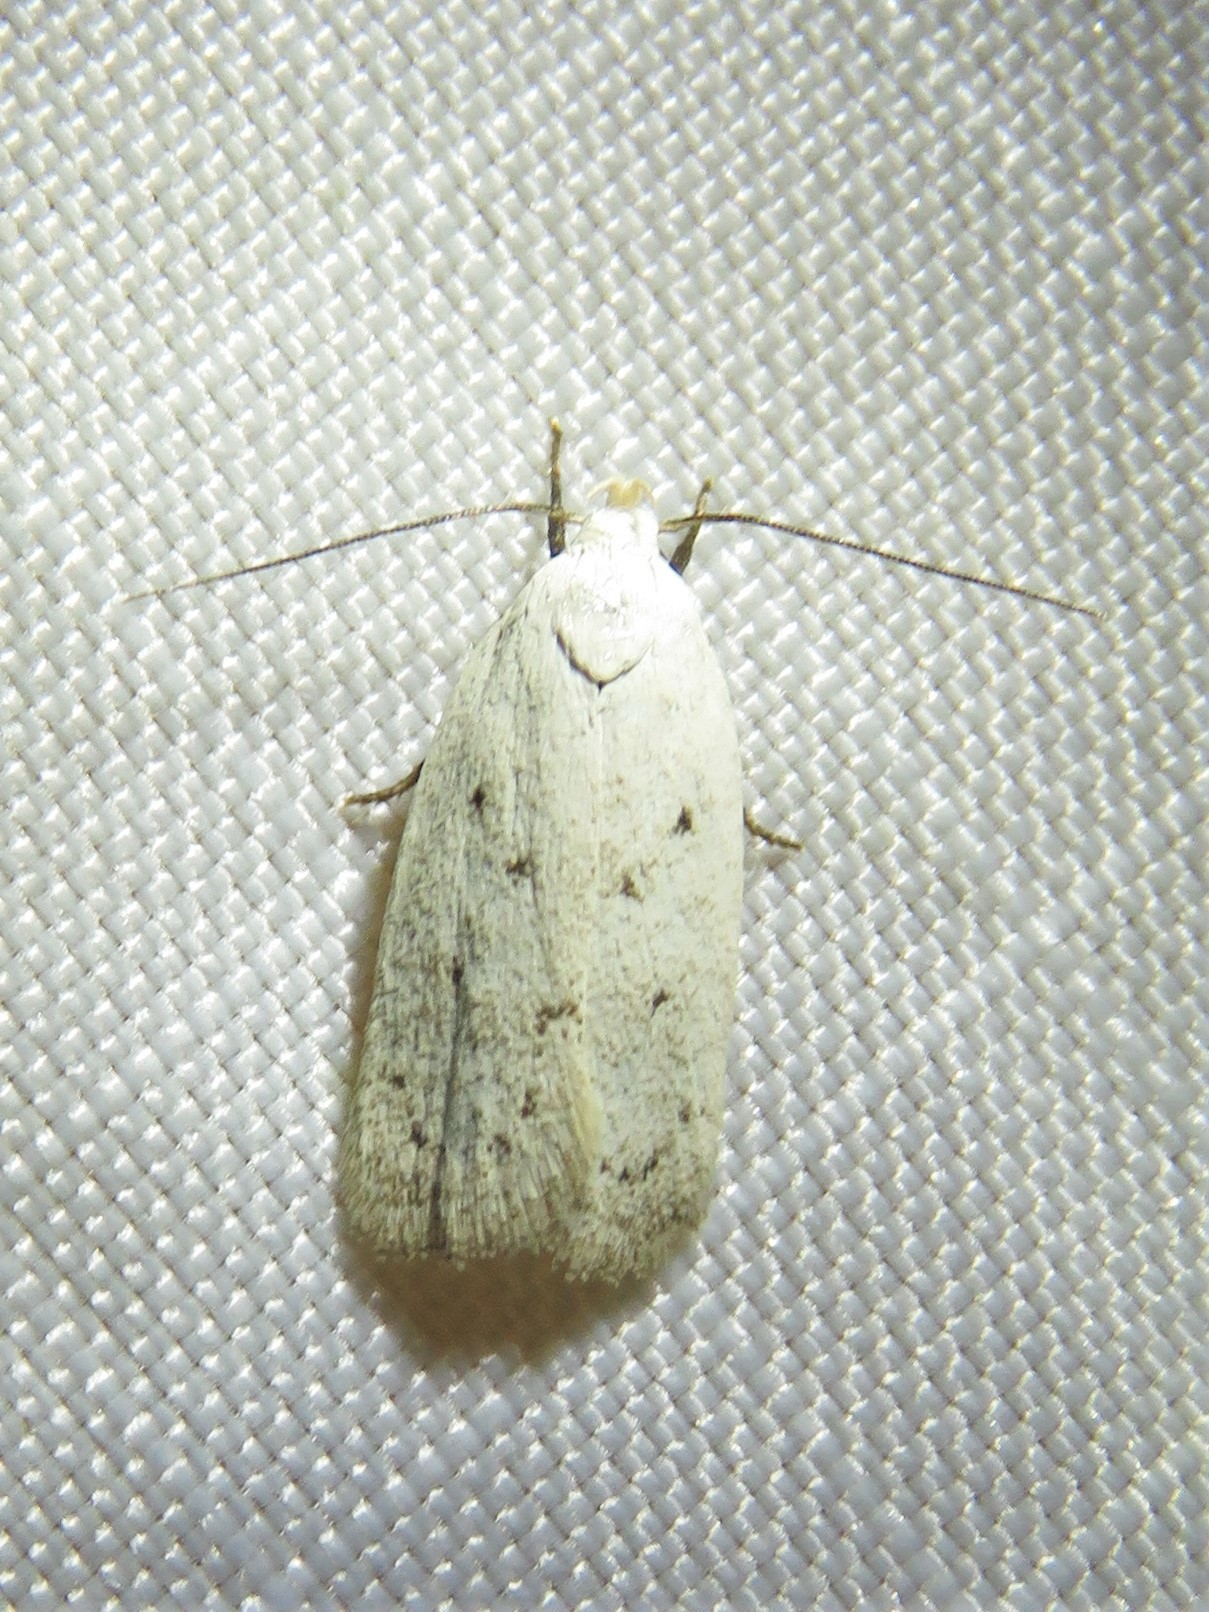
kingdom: Animalia
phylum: Arthropoda
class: Insecta
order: Lepidoptera
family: Oecophoridae
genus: Inga
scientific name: Inga cretacea
